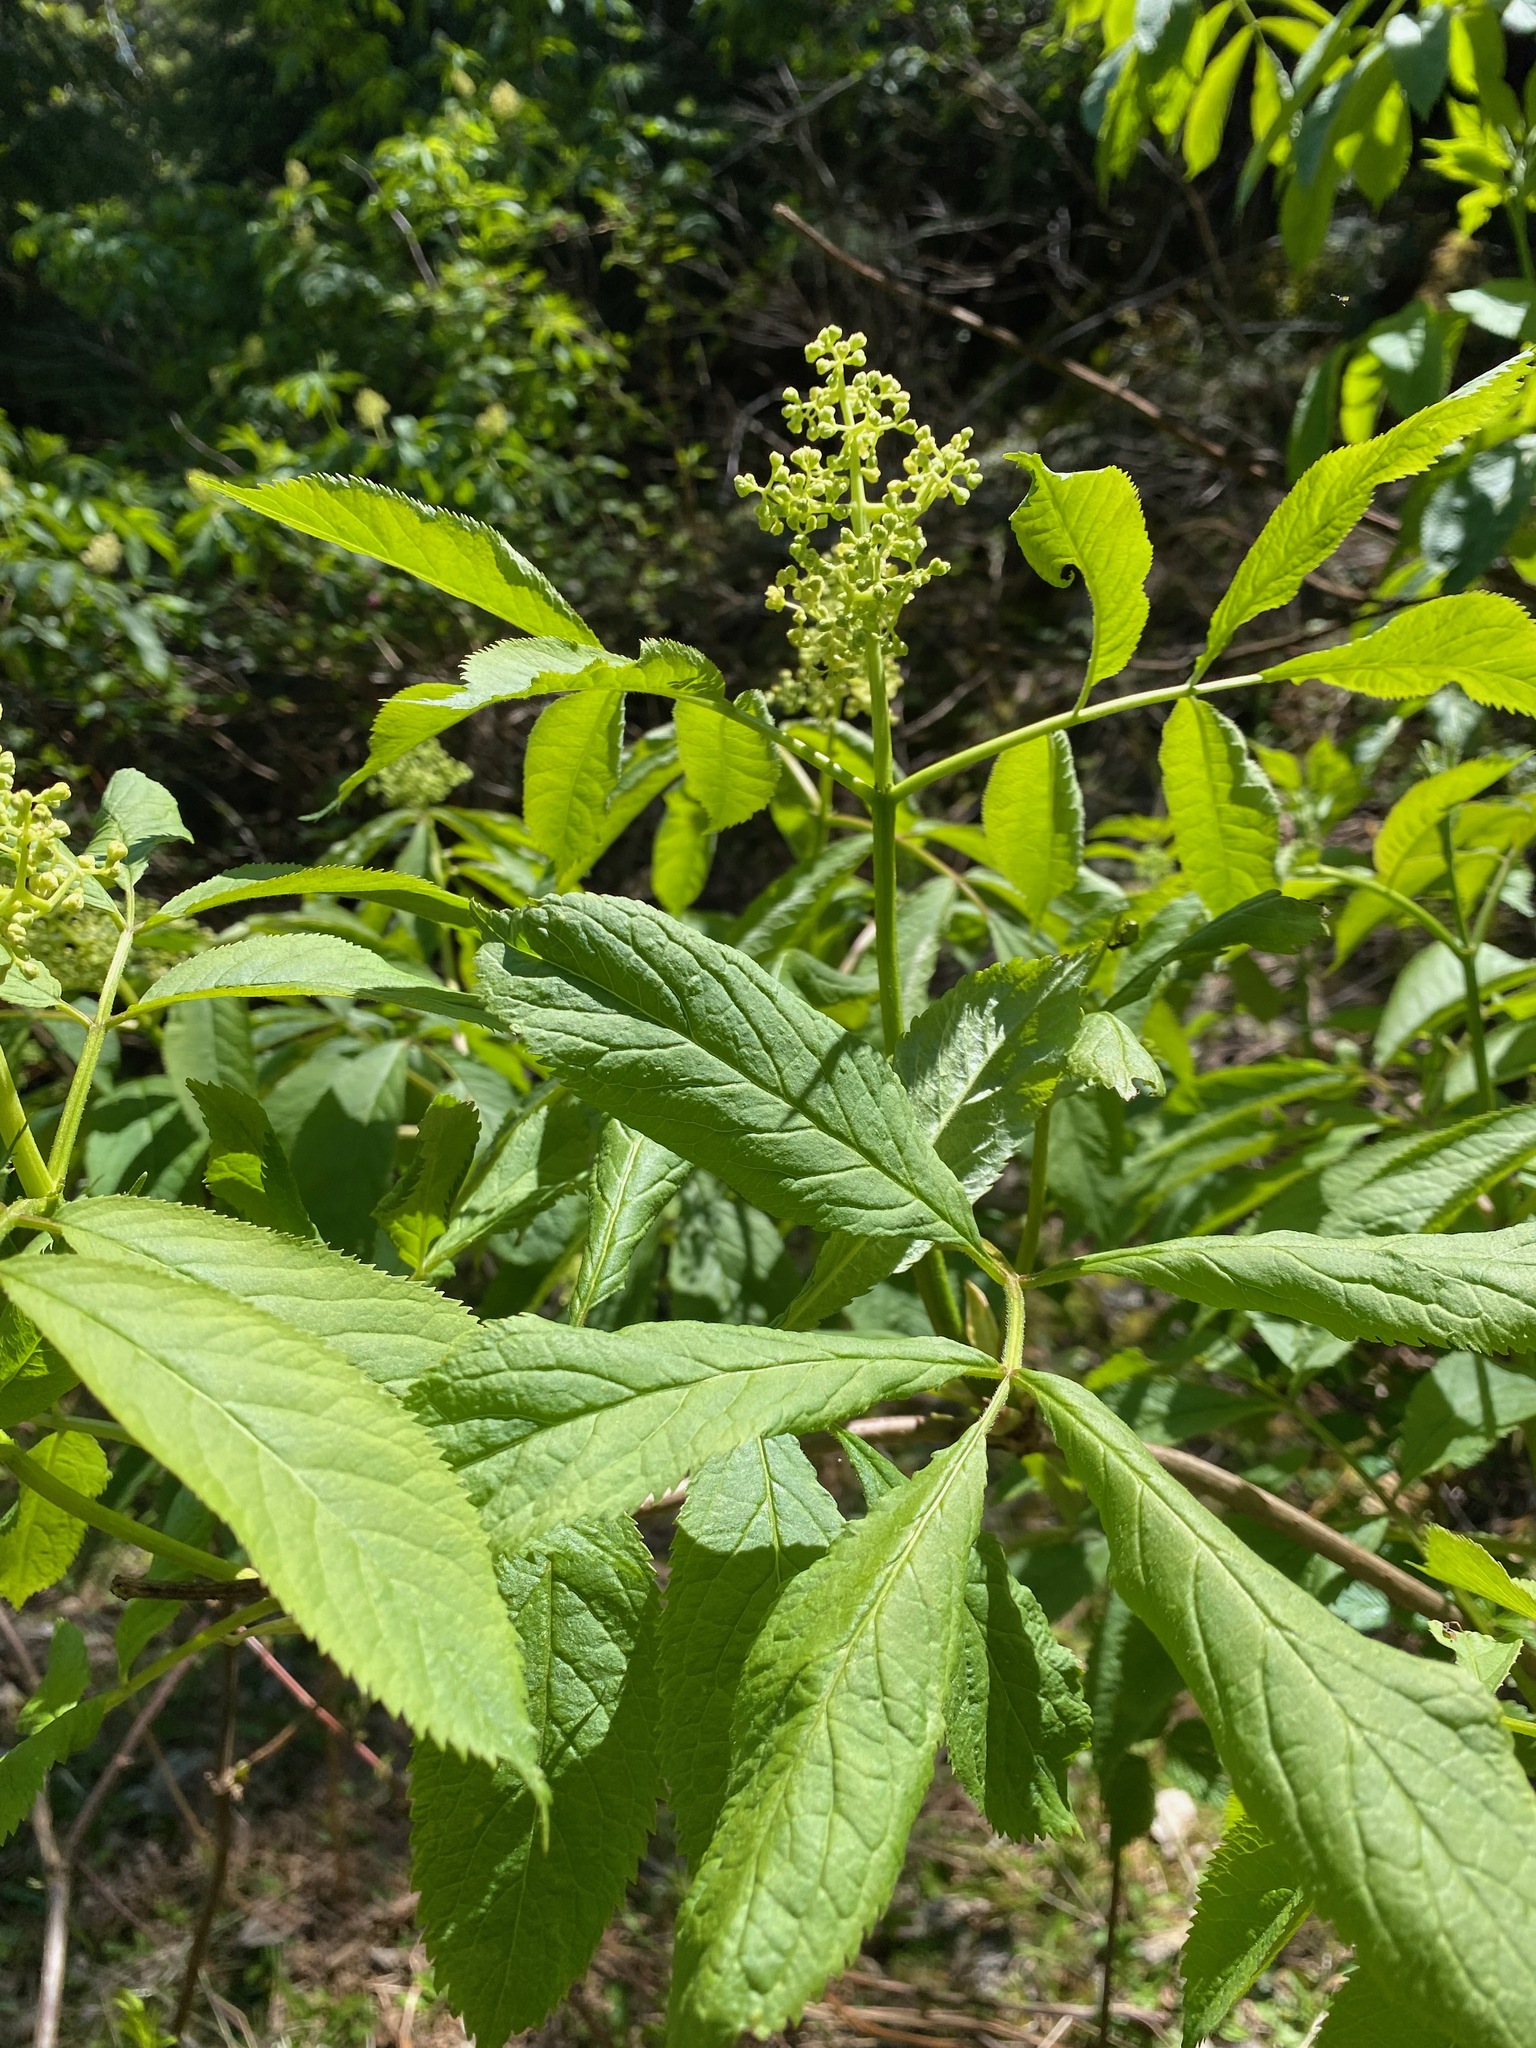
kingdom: Plantae
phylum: Tracheophyta
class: Magnoliopsida
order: Dipsacales
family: Viburnaceae
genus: Sambucus
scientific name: Sambucus racemosa
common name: Red-berried elder
